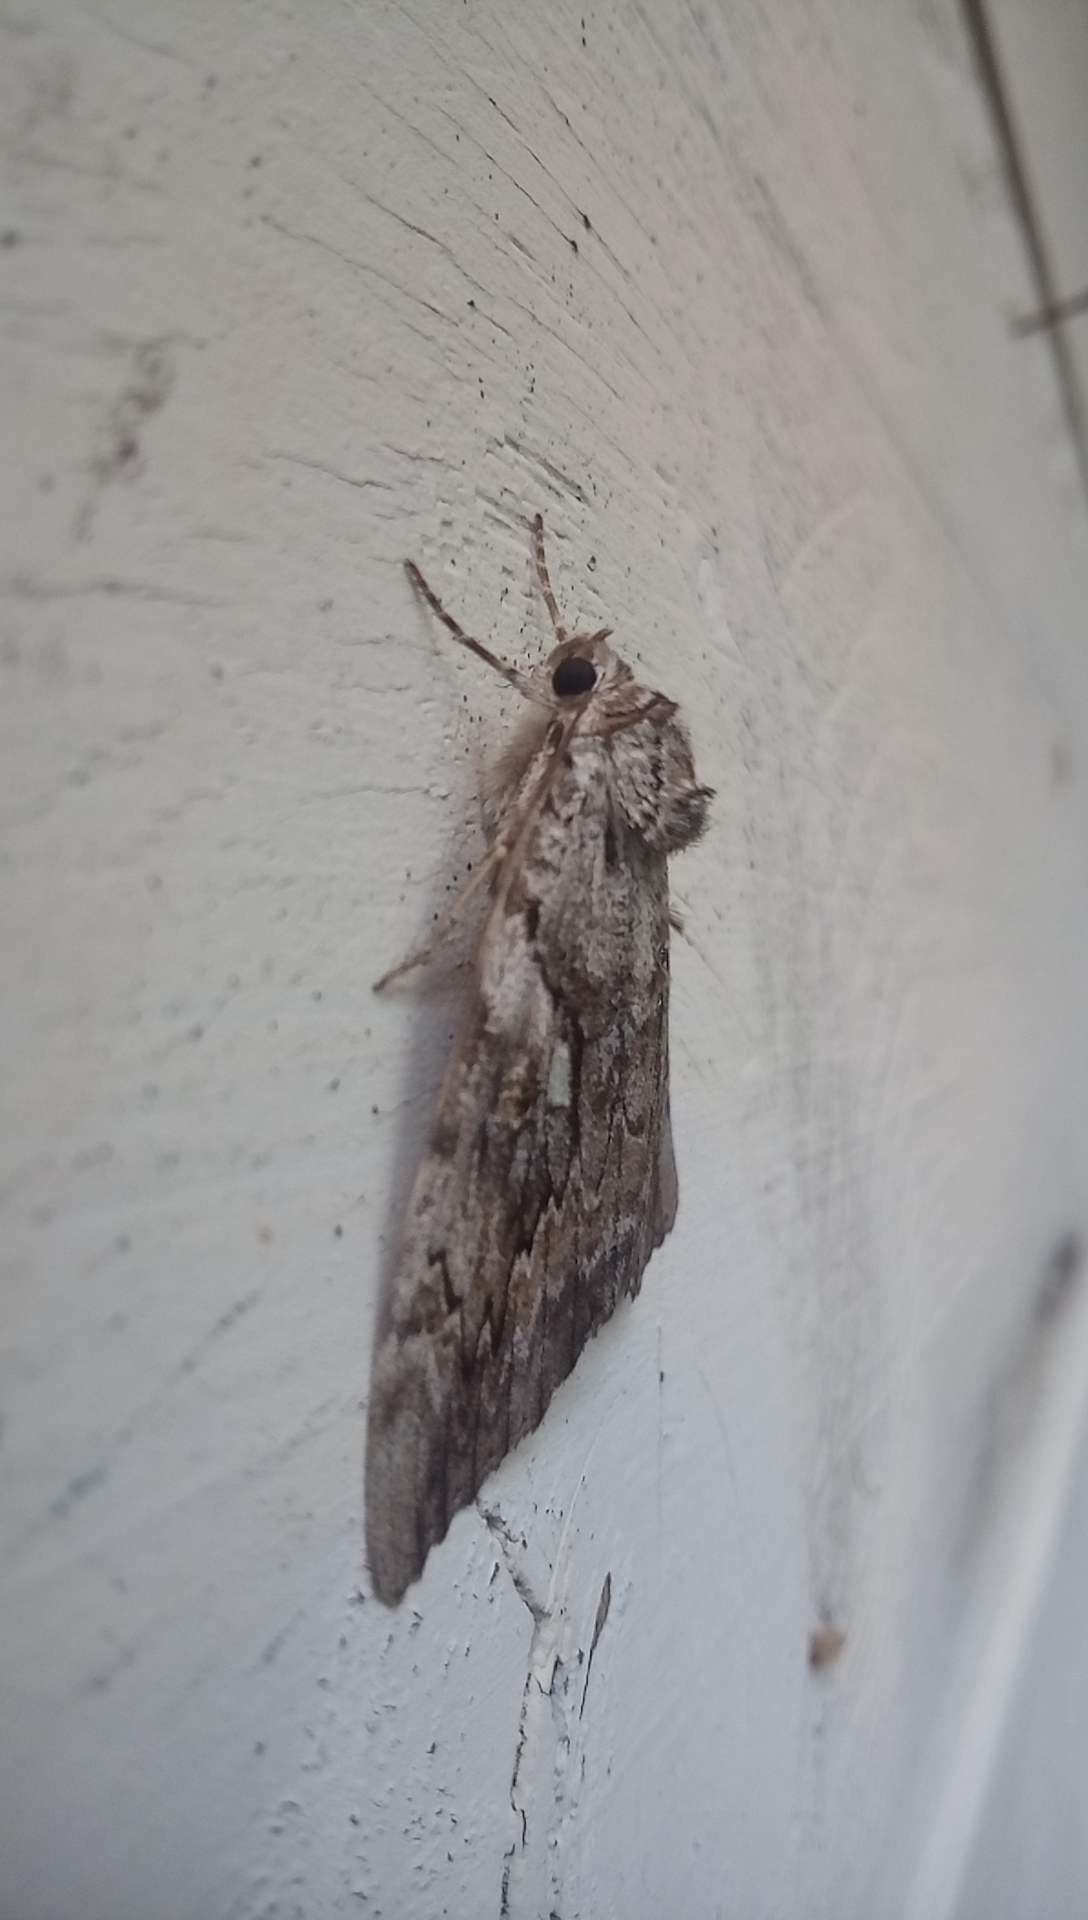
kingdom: Animalia
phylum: Arthropoda
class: Insecta
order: Lepidoptera
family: Erebidae
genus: Catocala
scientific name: Catocala cerogama
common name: Yellow banded underwing
